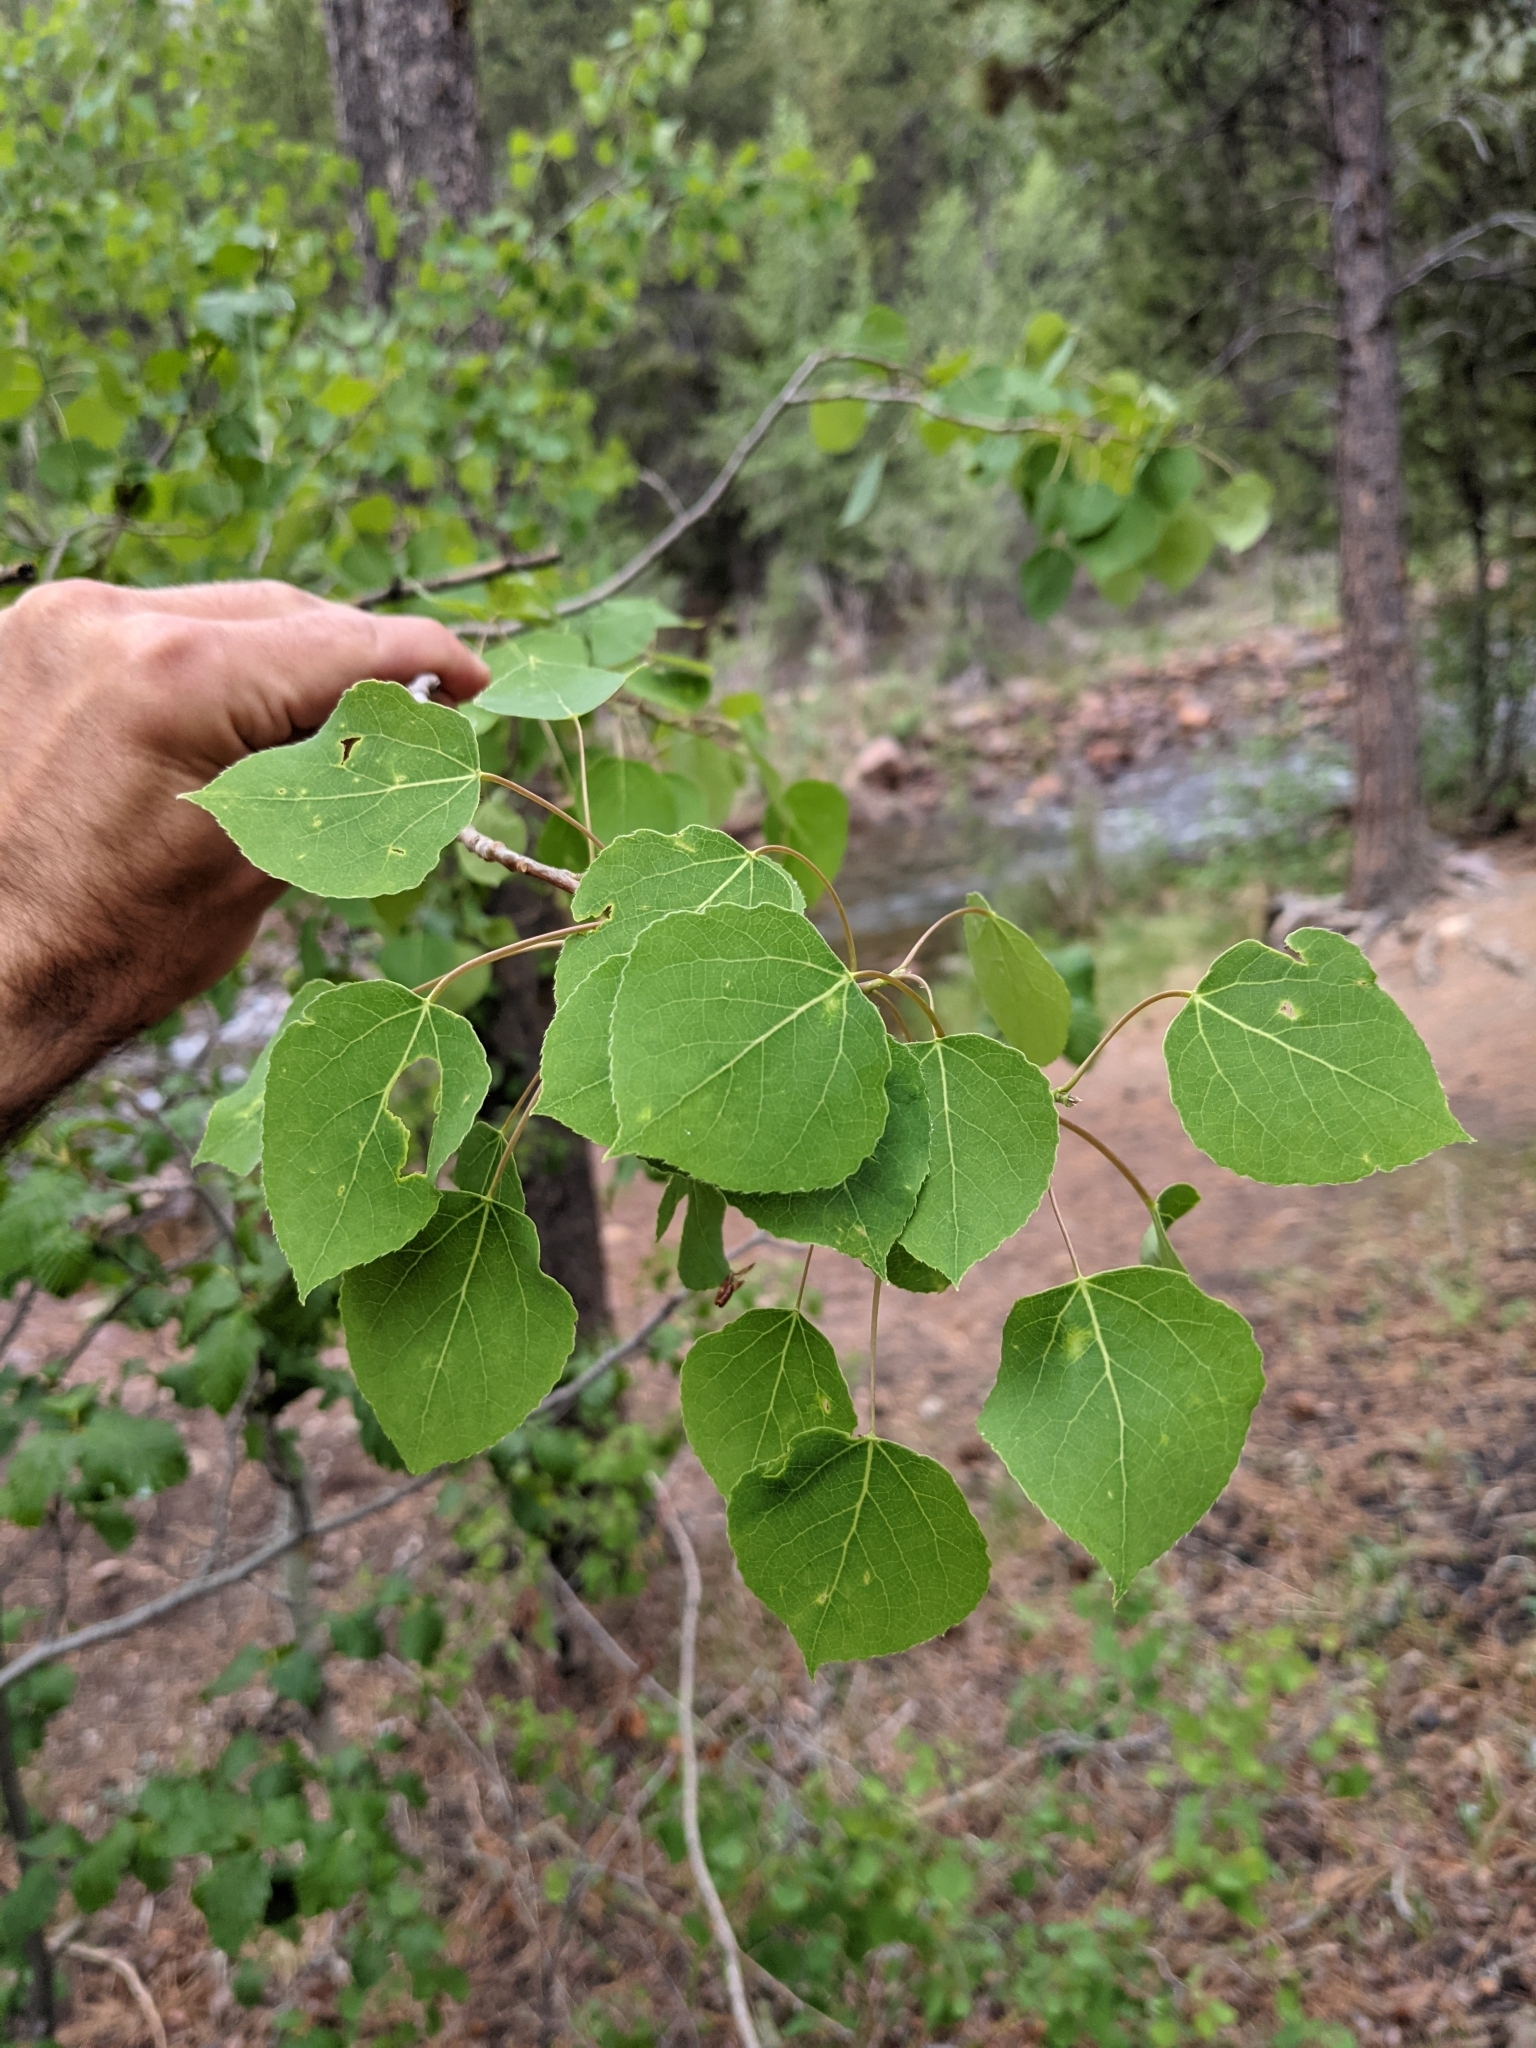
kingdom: Plantae
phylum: Tracheophyta
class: Magnoliopsida
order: Malpighiales
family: Salicaceae
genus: Populus
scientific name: Populus tremuloides
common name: Quaking aspen
